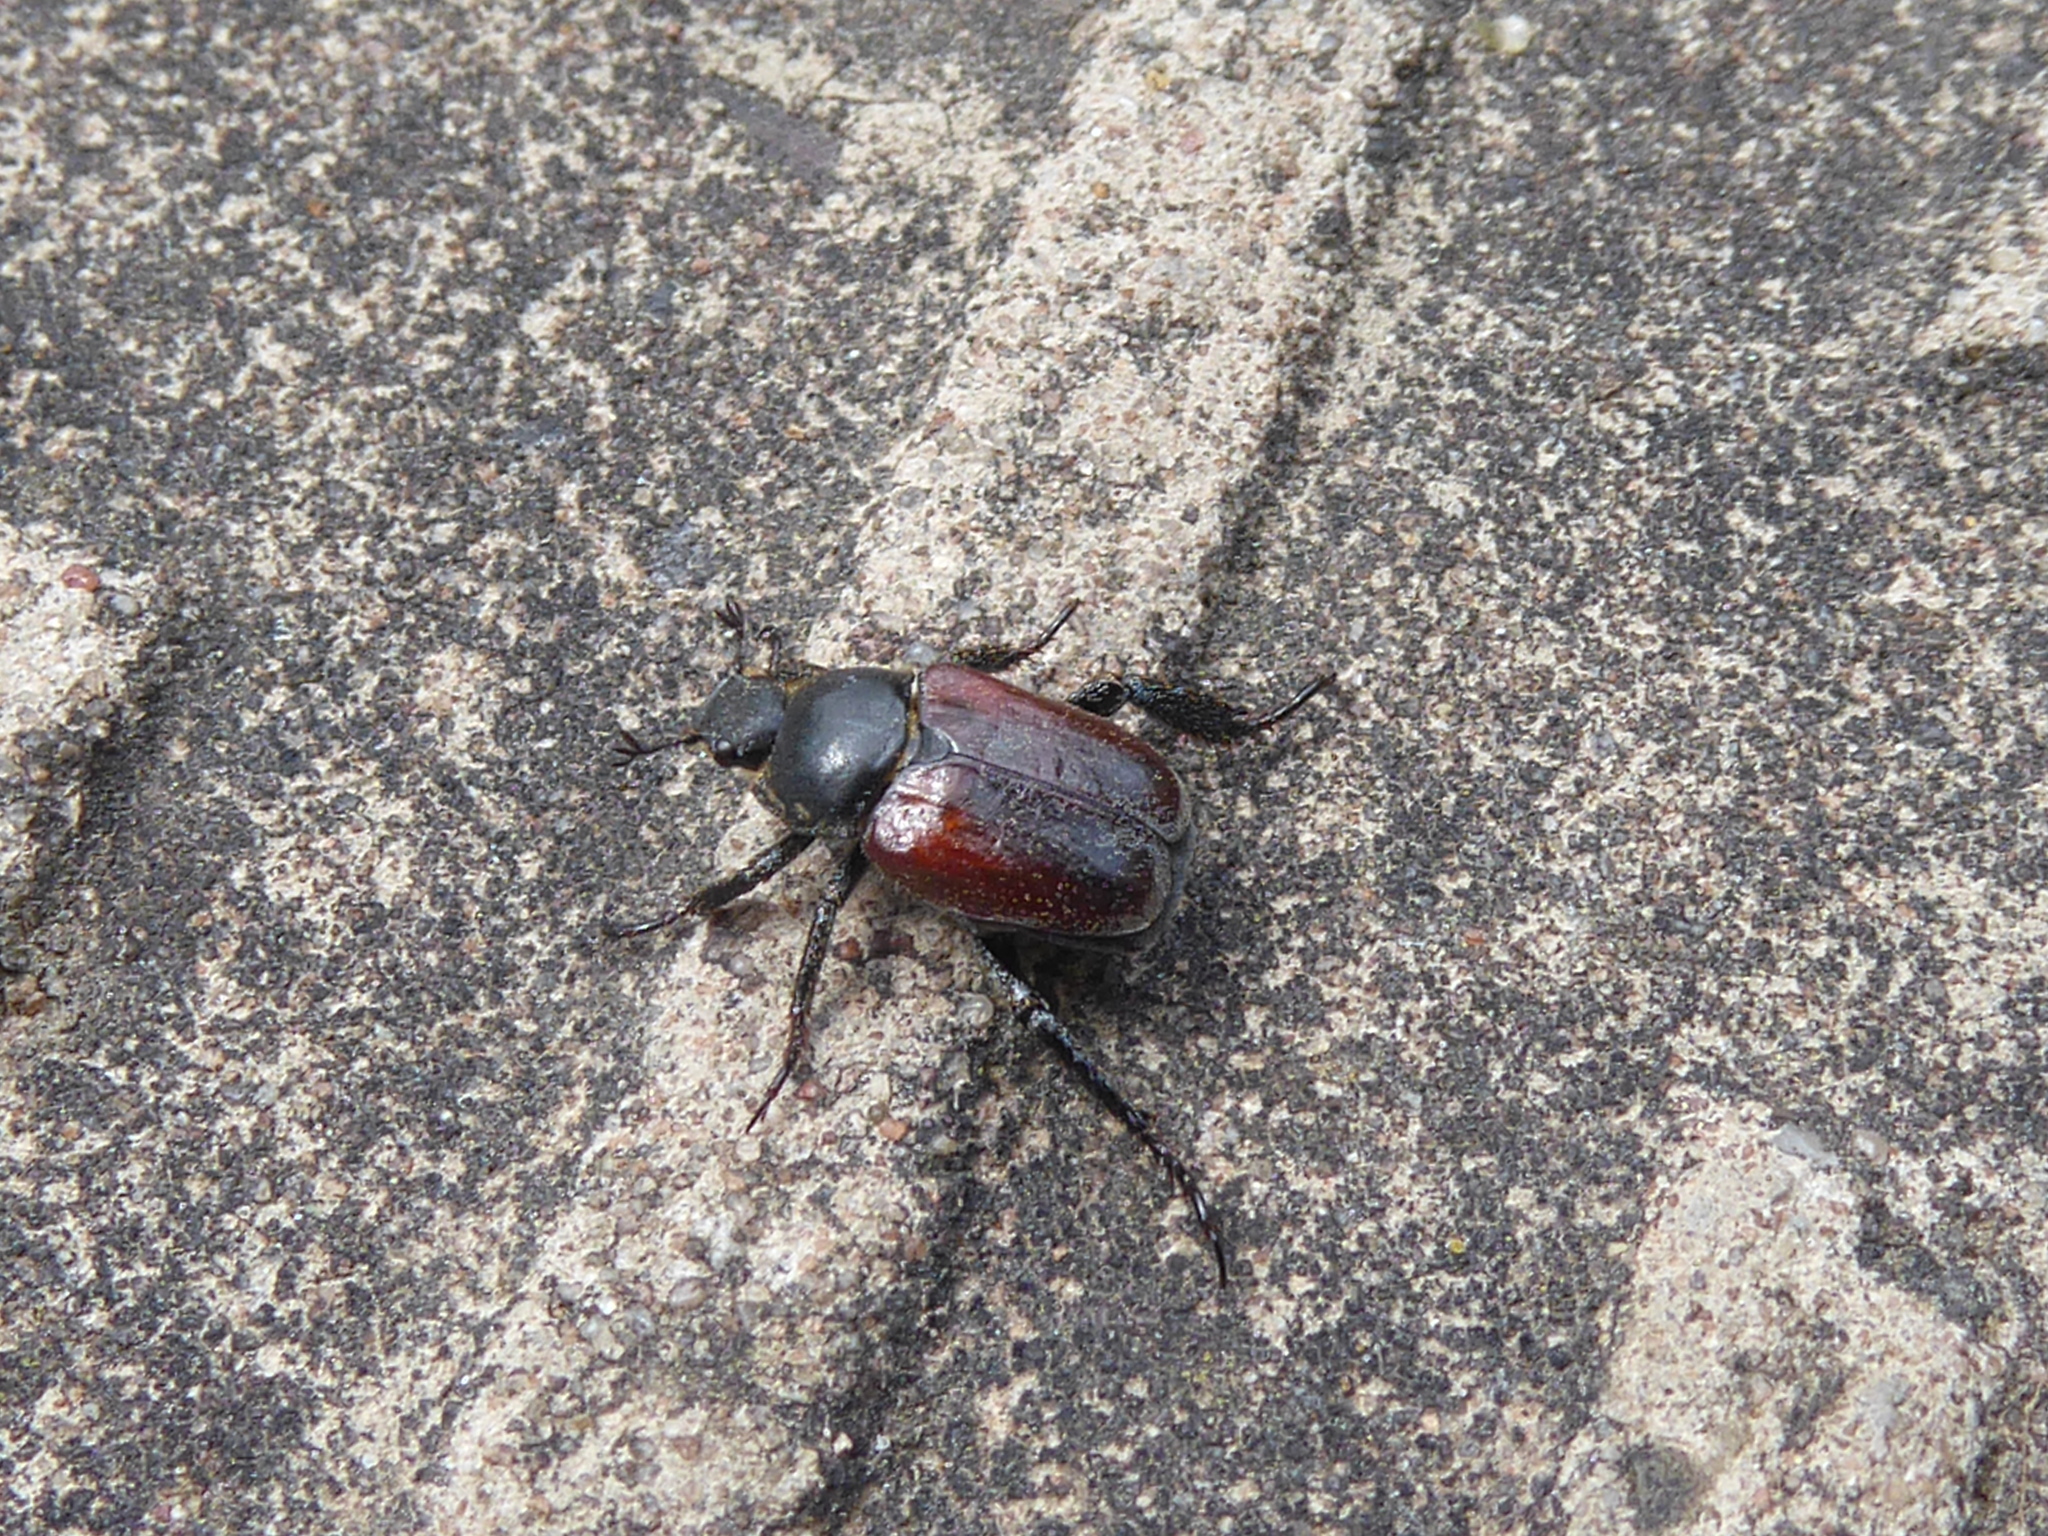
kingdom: Animalia
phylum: Arthropoda
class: Insecta
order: Coleoptera
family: Scarabaeidae
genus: Hoplia
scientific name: Hoplia philanthus
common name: Welsh chafer
